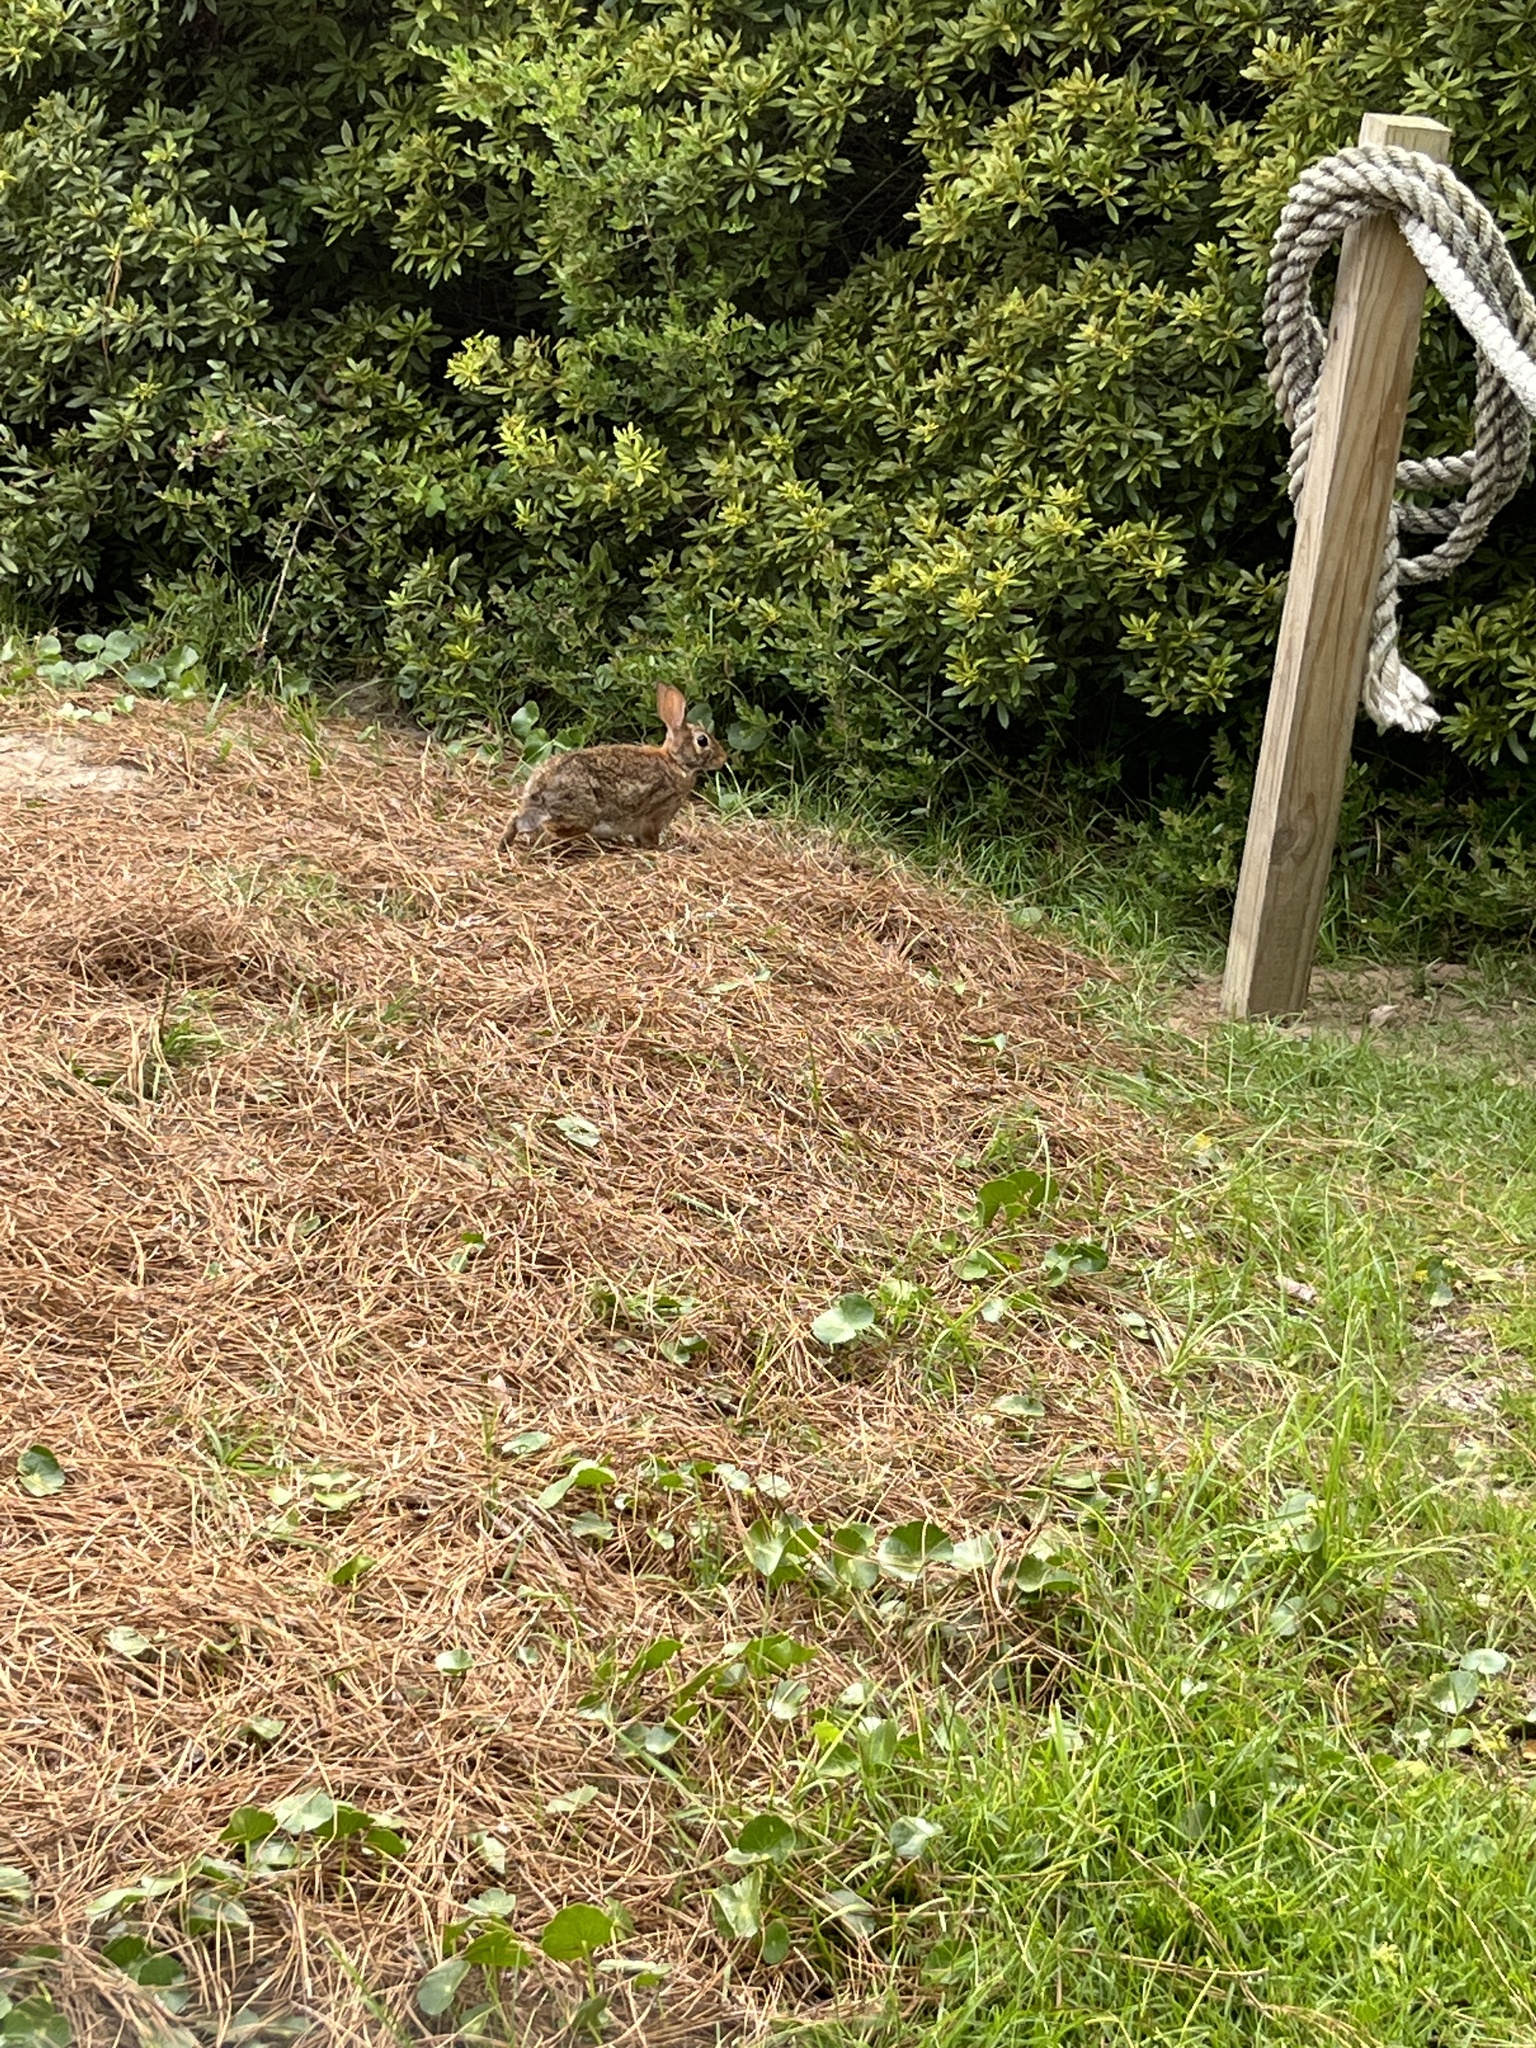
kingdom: Animalia
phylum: Chordata
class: Mammalia
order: Lagomorpha
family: Leporidae
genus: Sylvilagus
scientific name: Sylvilagus floridanus
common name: Eastern cottontail
